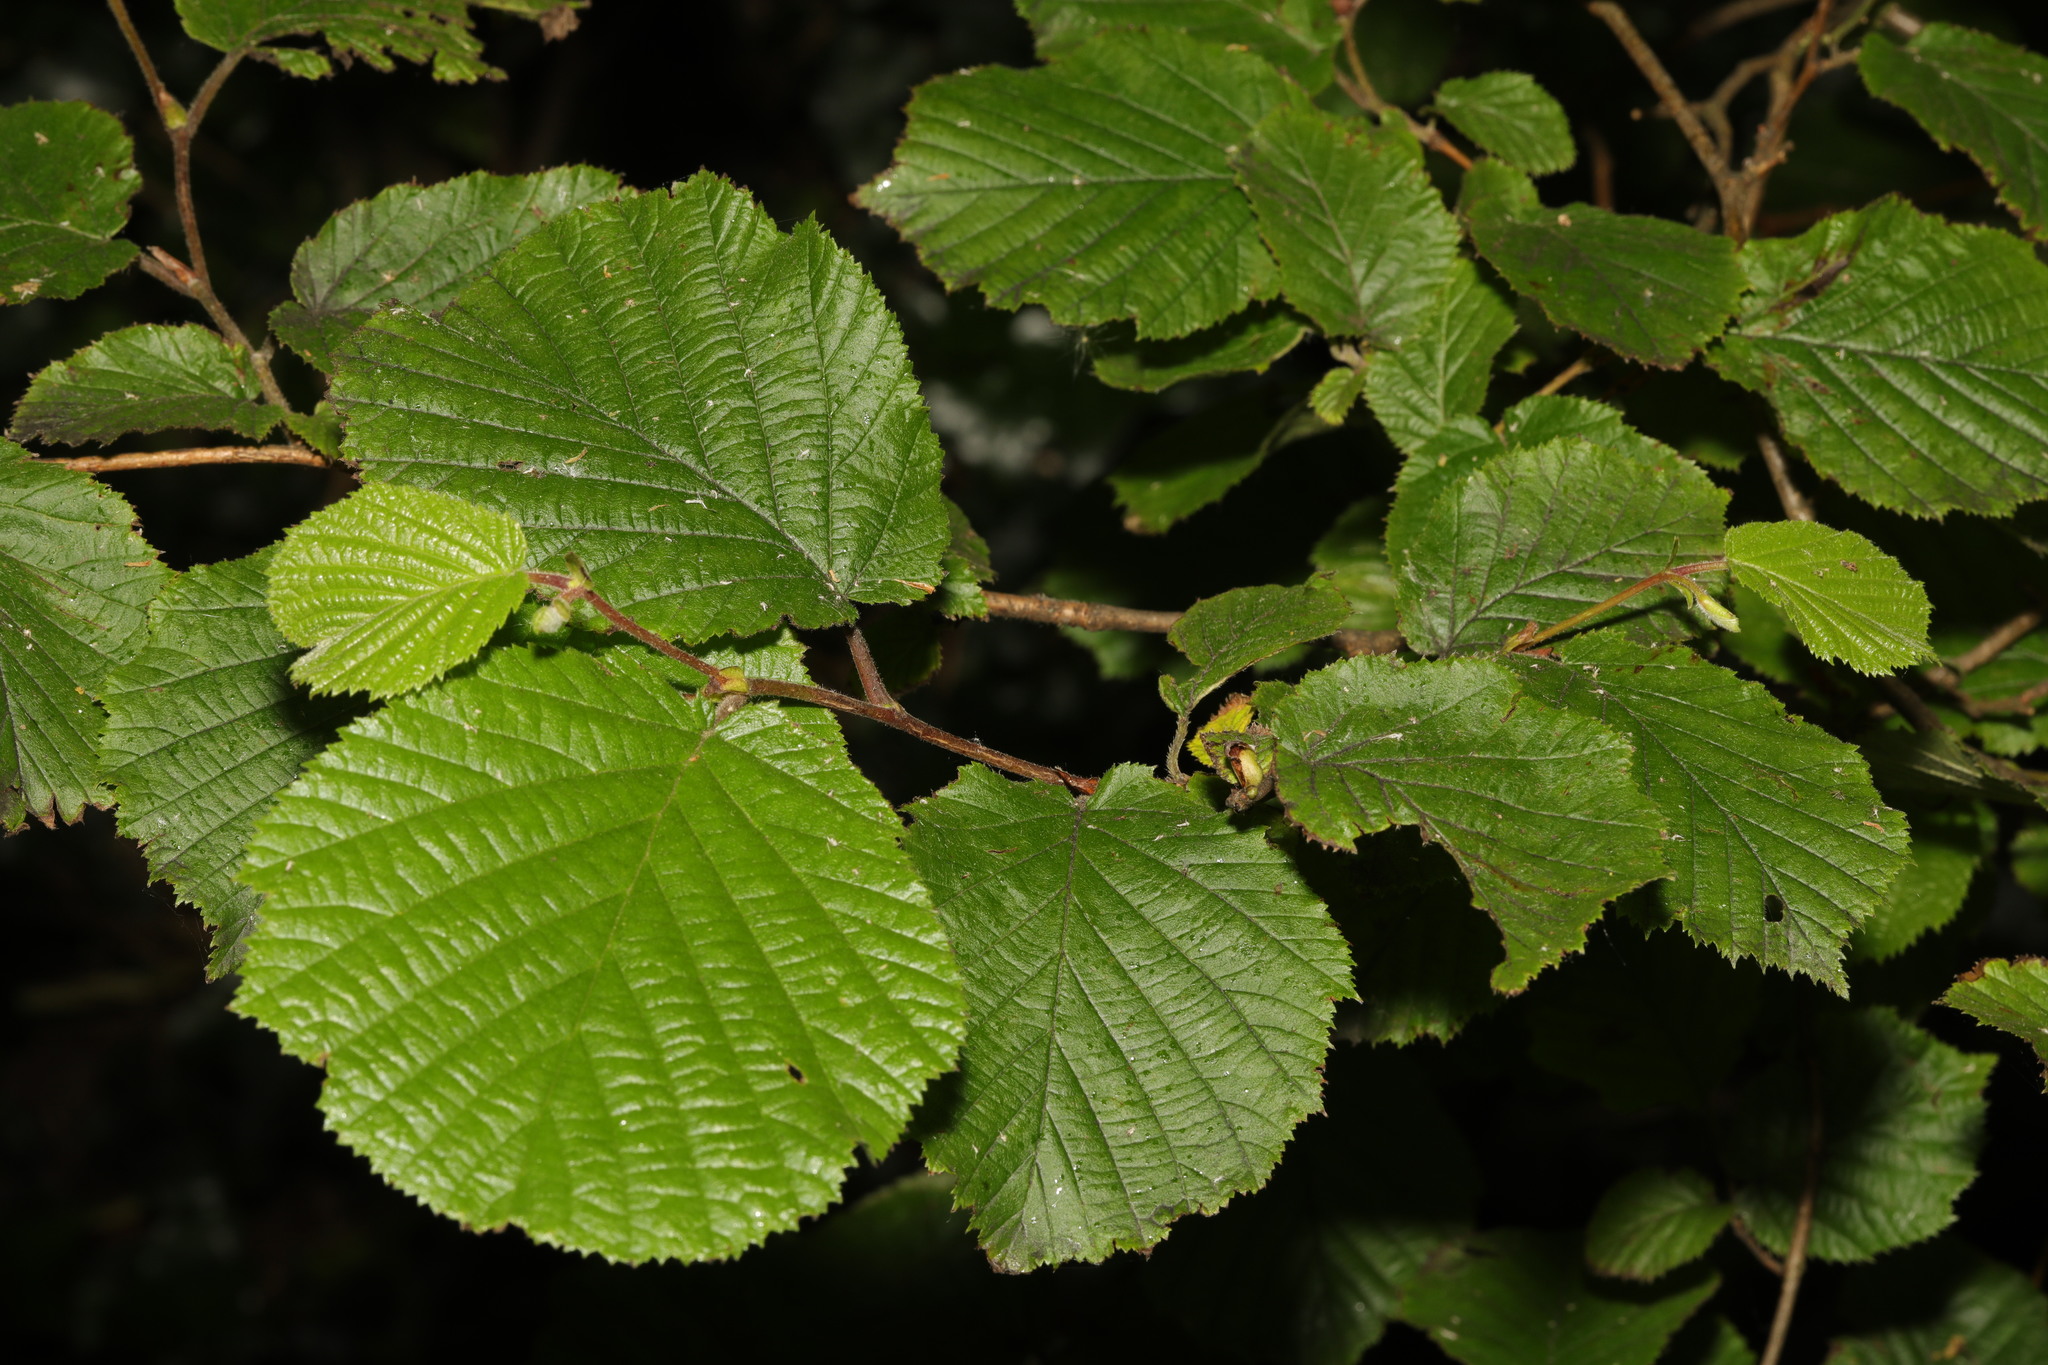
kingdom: Plantae
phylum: Tracheophyta
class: Magnoliopsida
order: Fagales
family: Betulaceae
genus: Corylus
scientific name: Corylus avellana
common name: European hazel
